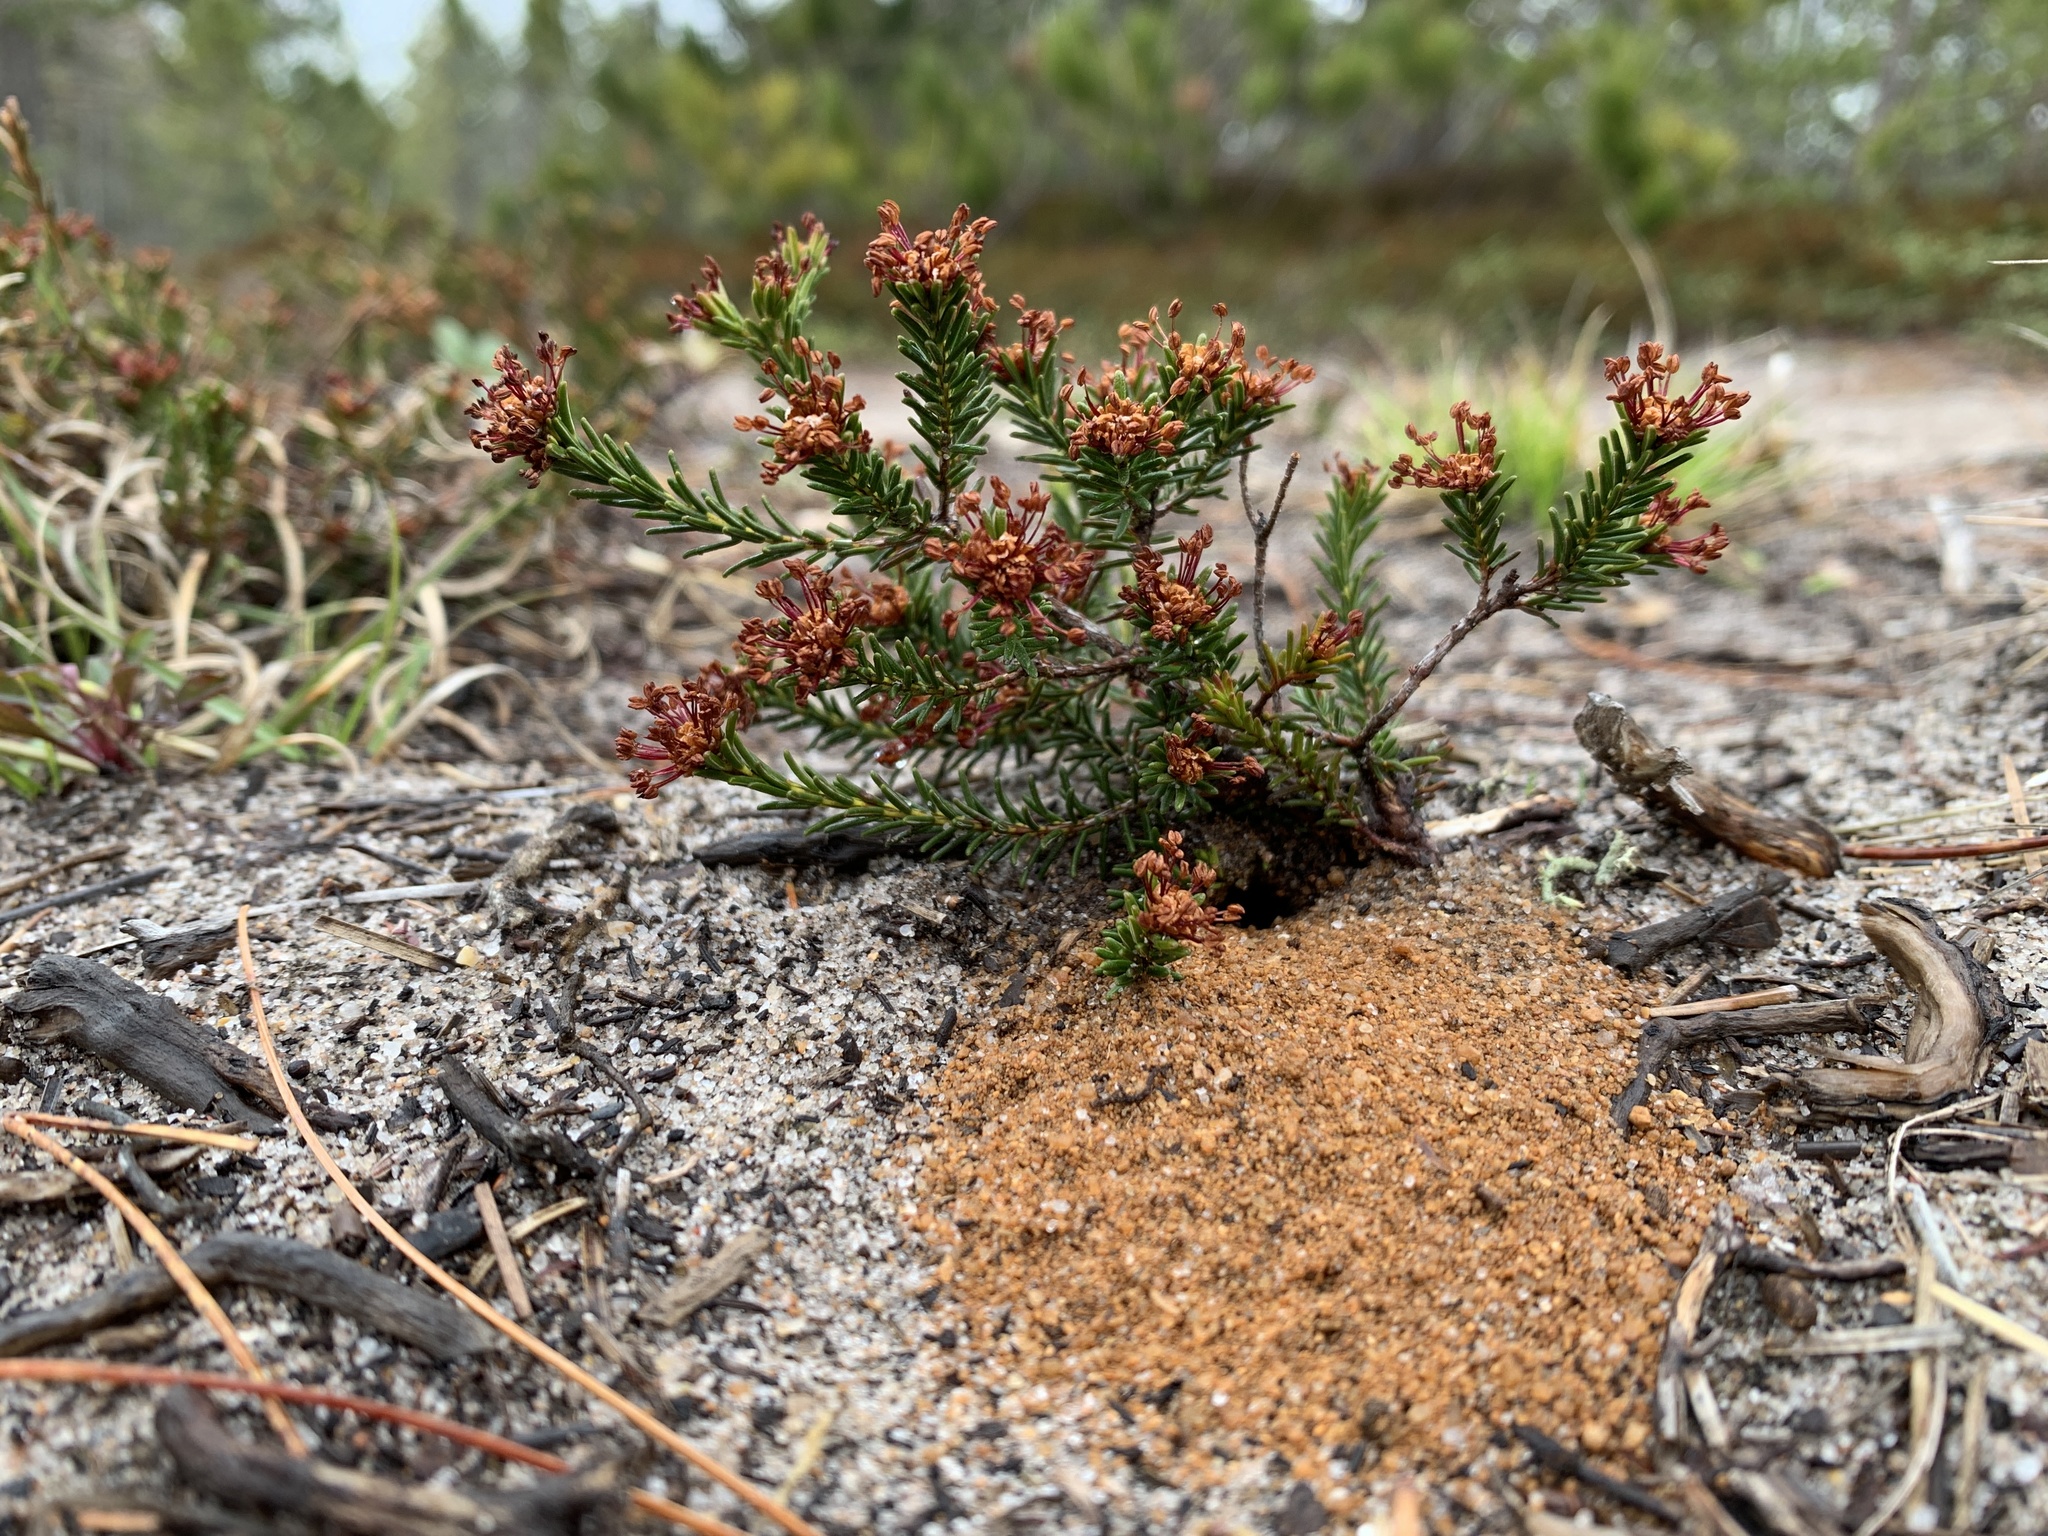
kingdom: Plantae
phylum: Tracheophyta
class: Magnoliopsida
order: Ericales
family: Ericaceae
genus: Corema
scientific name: Corema conradii
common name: Broom-crowberry
